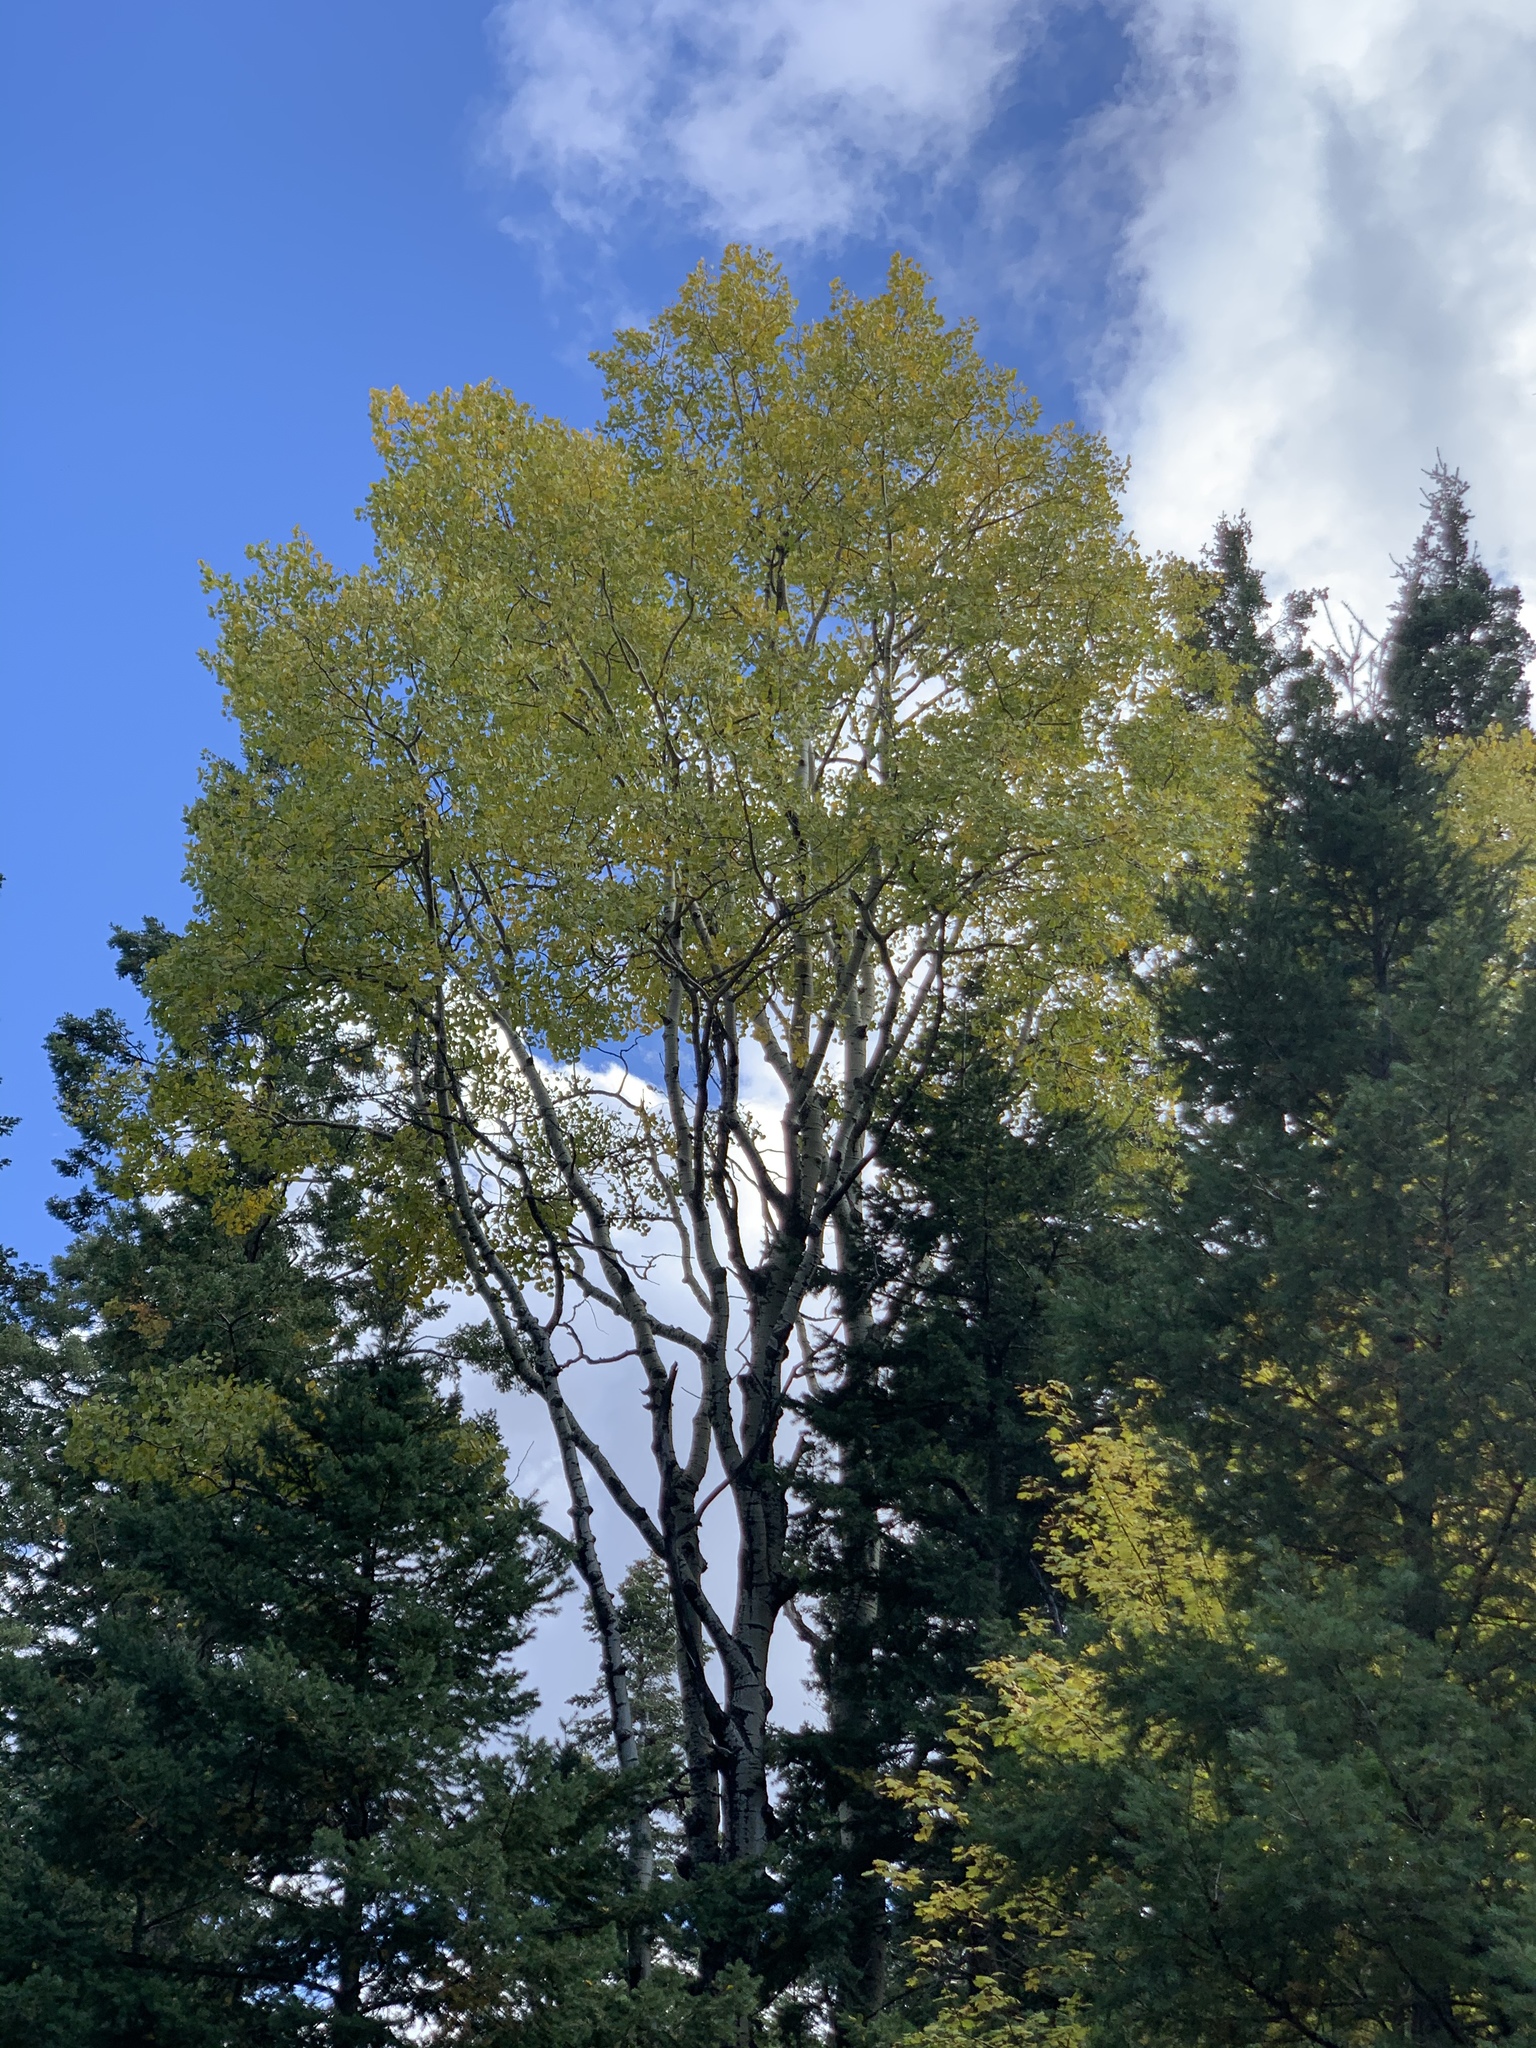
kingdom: Plantae
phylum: Tracheophyta
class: Magnoliopsida
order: Malpighiales
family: Salicaceae
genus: Populus
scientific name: Populus tremuloides
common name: Quaking aspen
